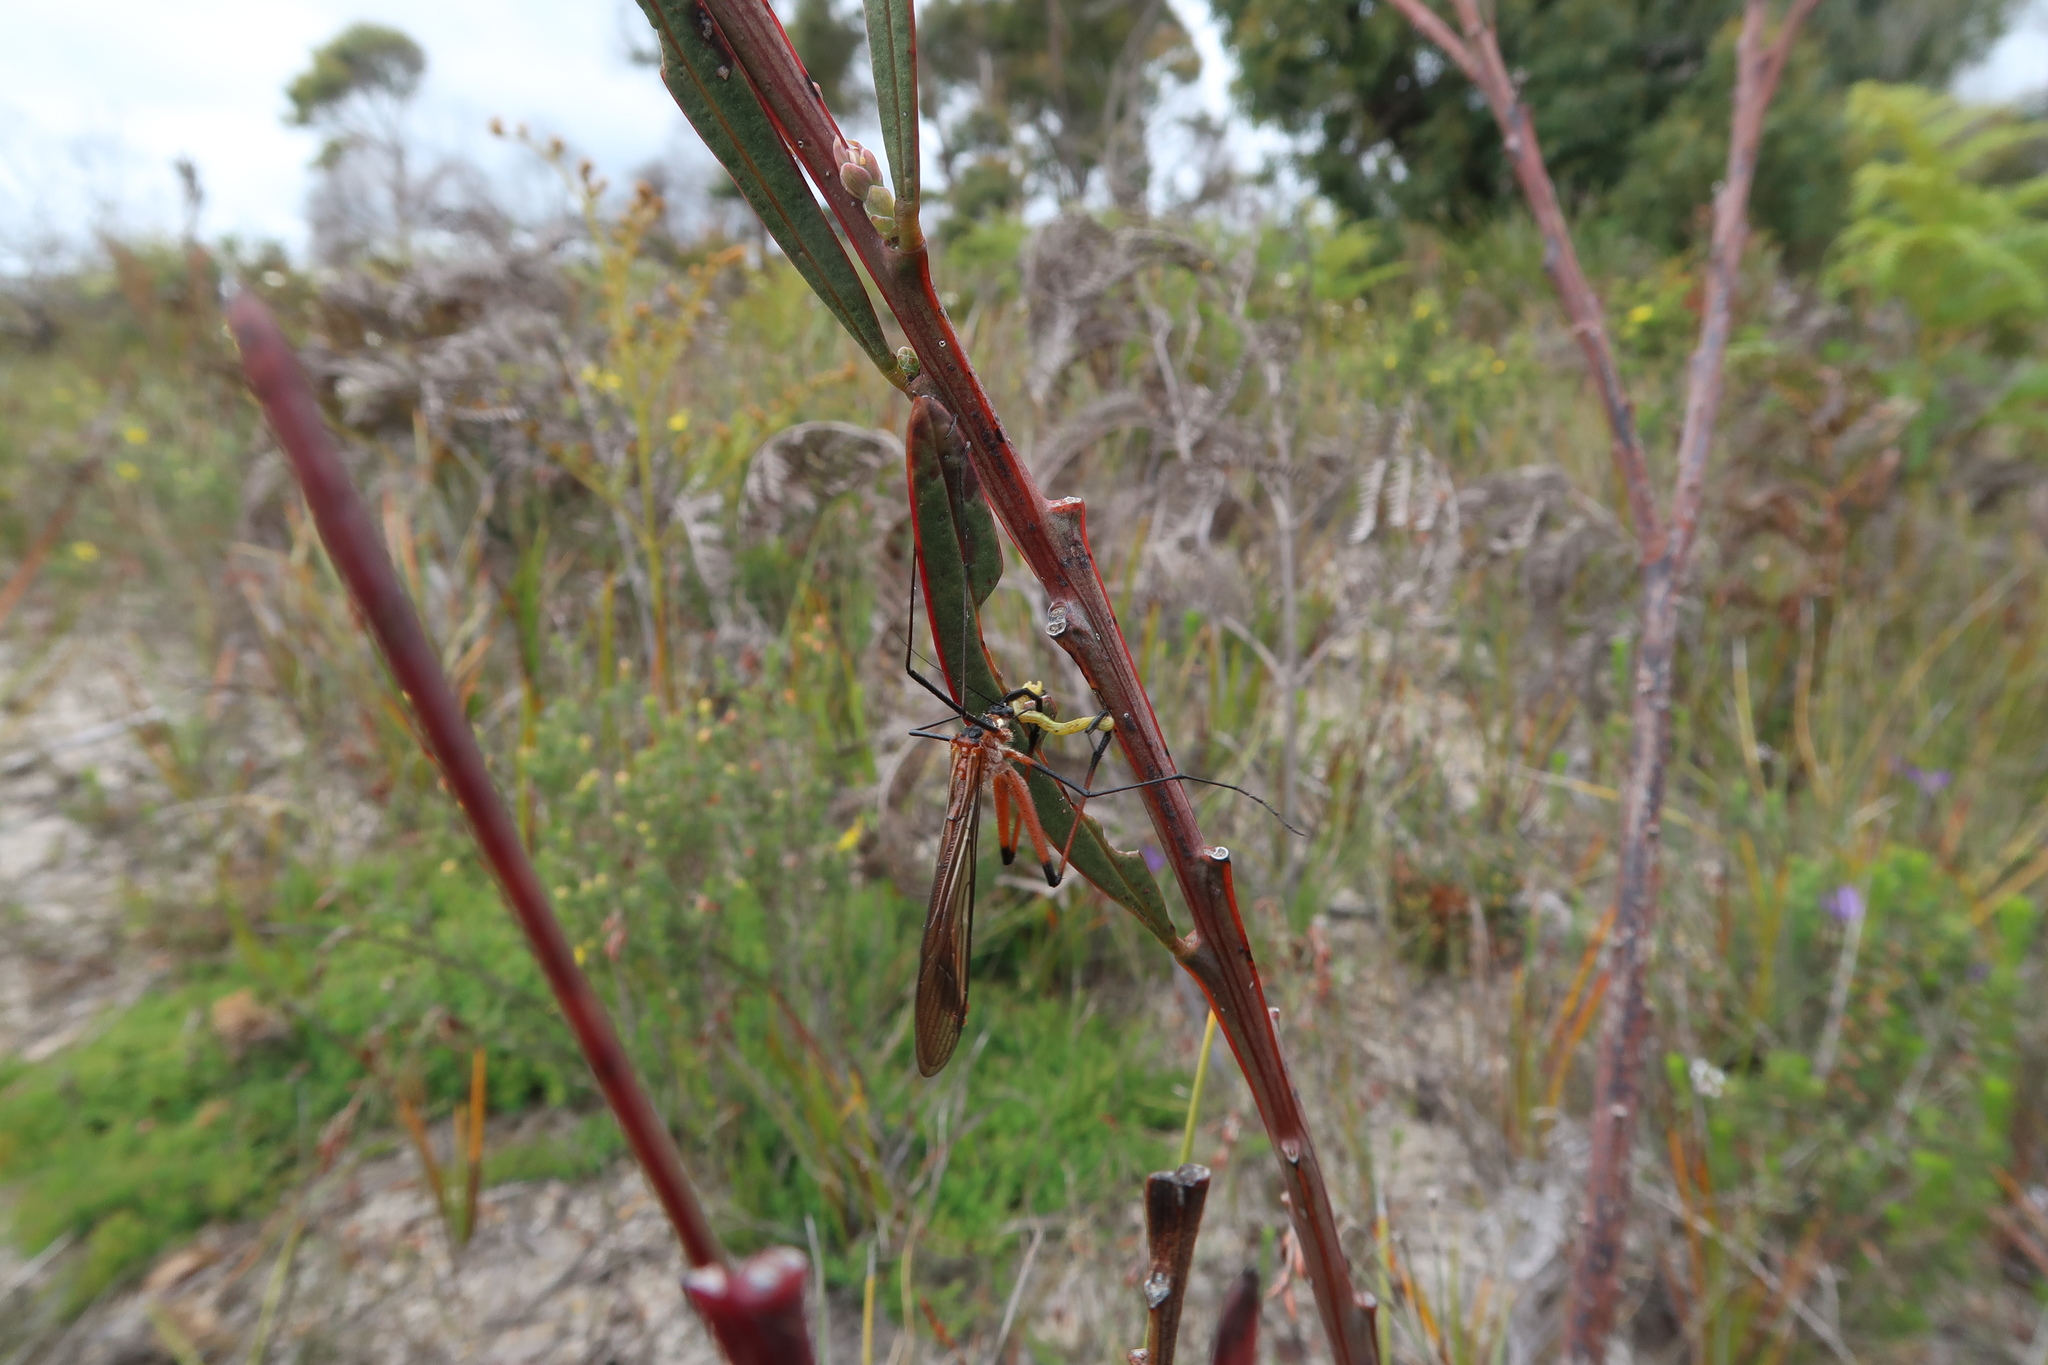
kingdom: Animalia
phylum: Arthropoda
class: Insecta
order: Mecoptera
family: Bittacidae
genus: Harpobittacus
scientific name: Harpobittacus australis
